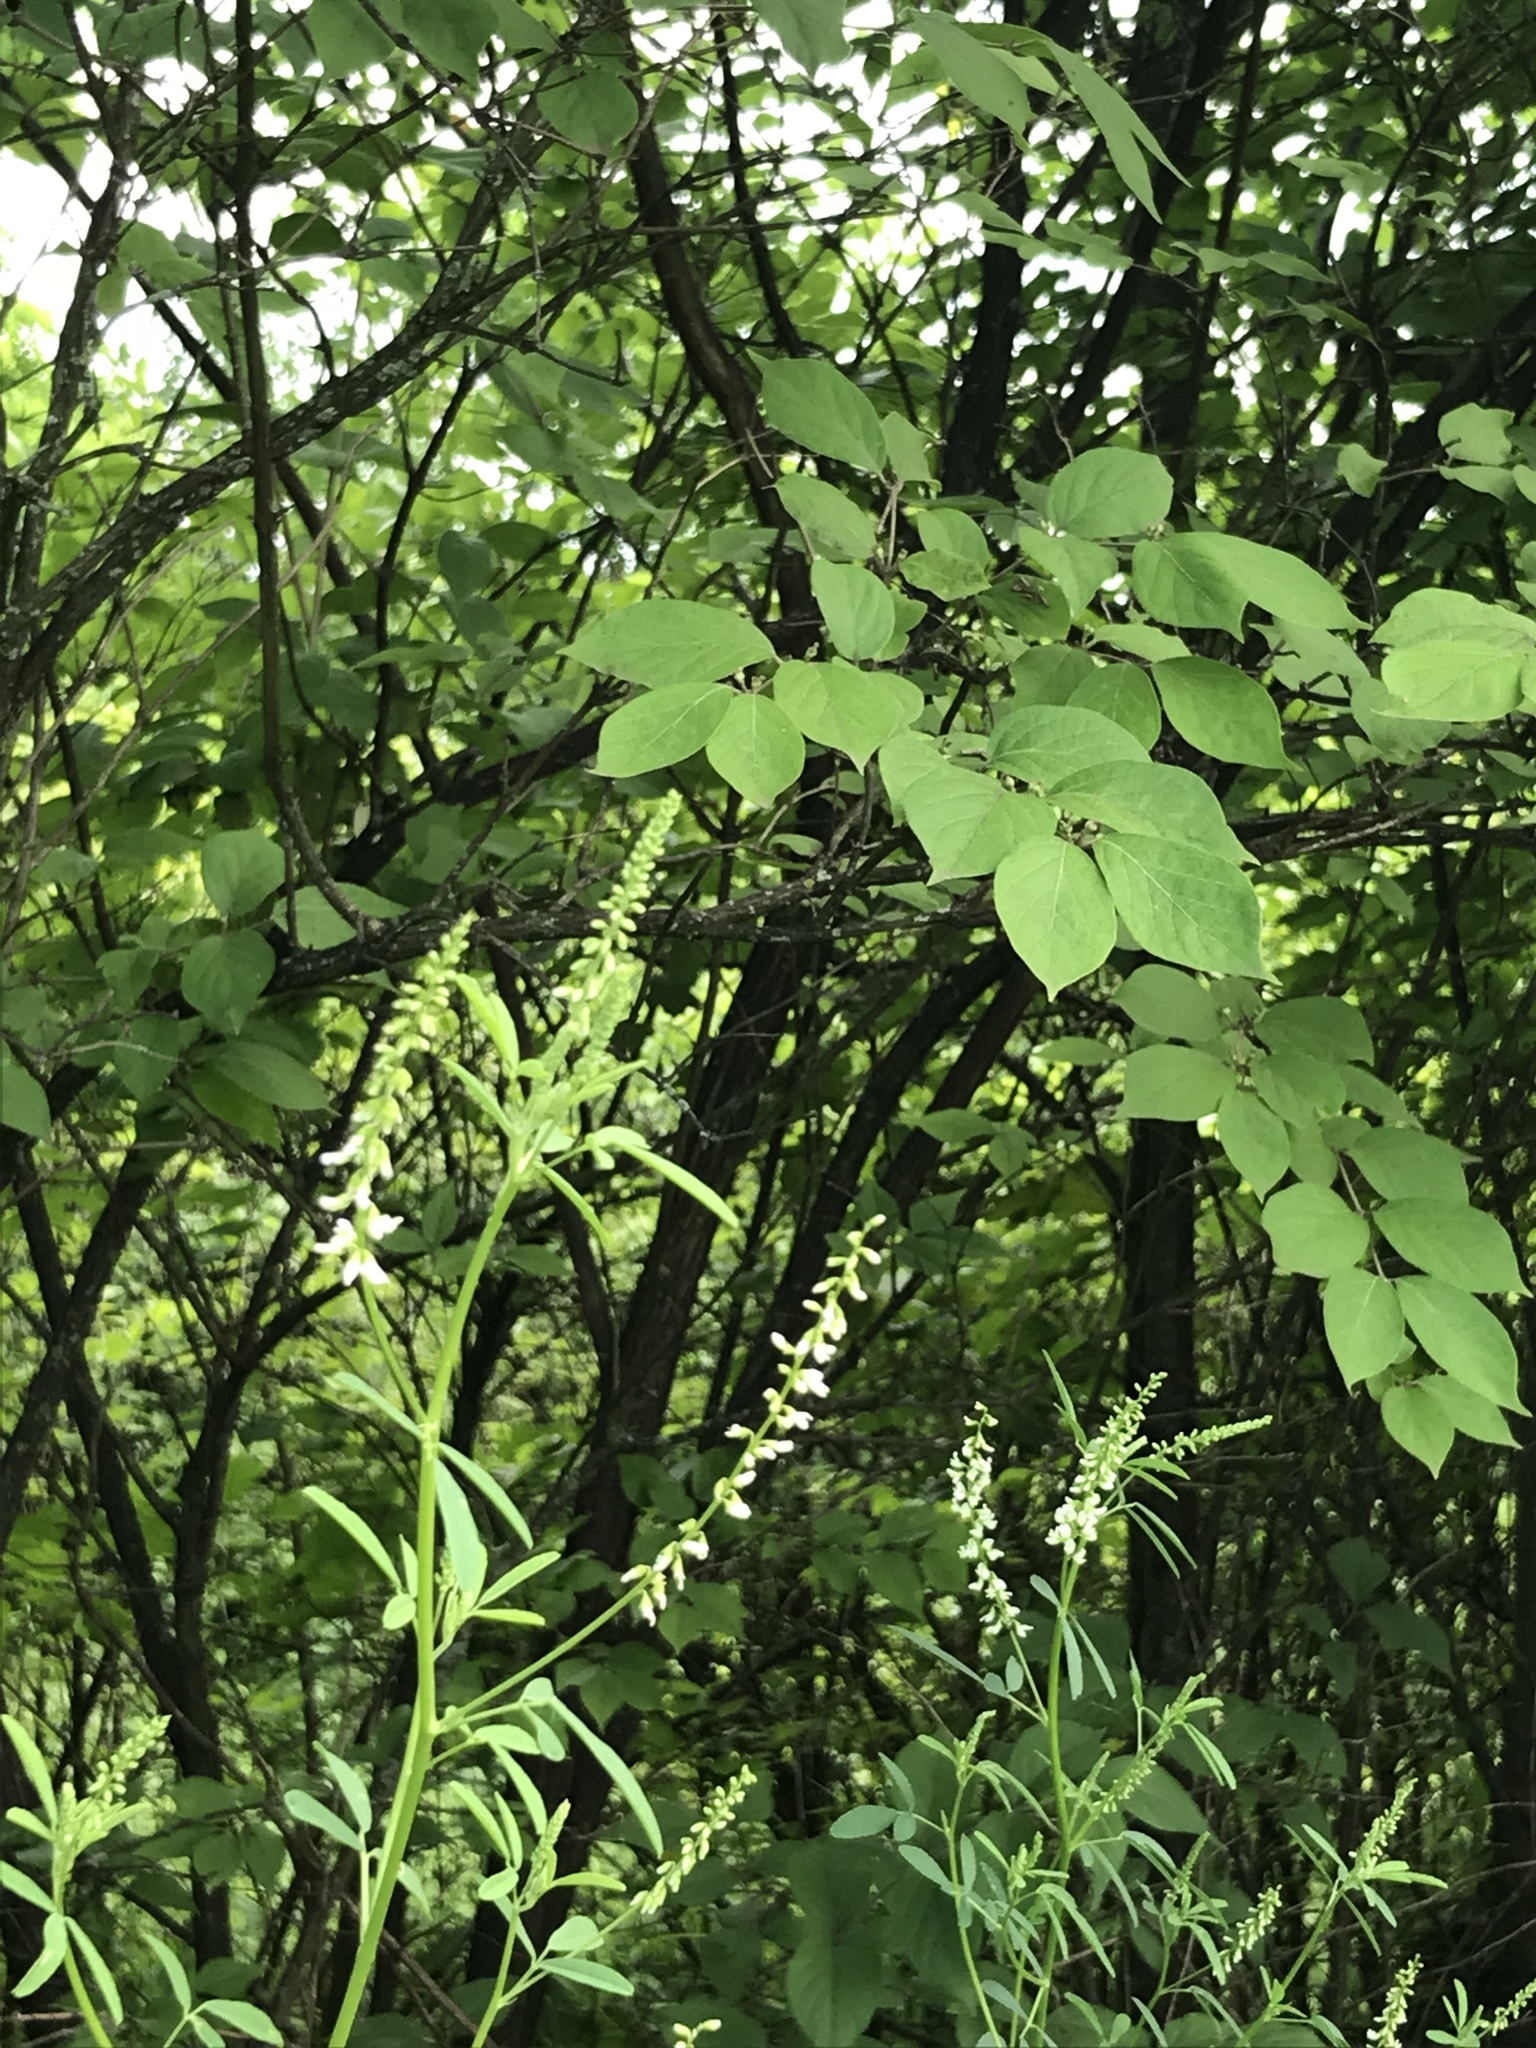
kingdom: Plantae
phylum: Tracheophyta
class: Magnoliopsida
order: Fabales
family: Fabaceae
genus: Melilotus
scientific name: Melilotus albus
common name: White melilot
